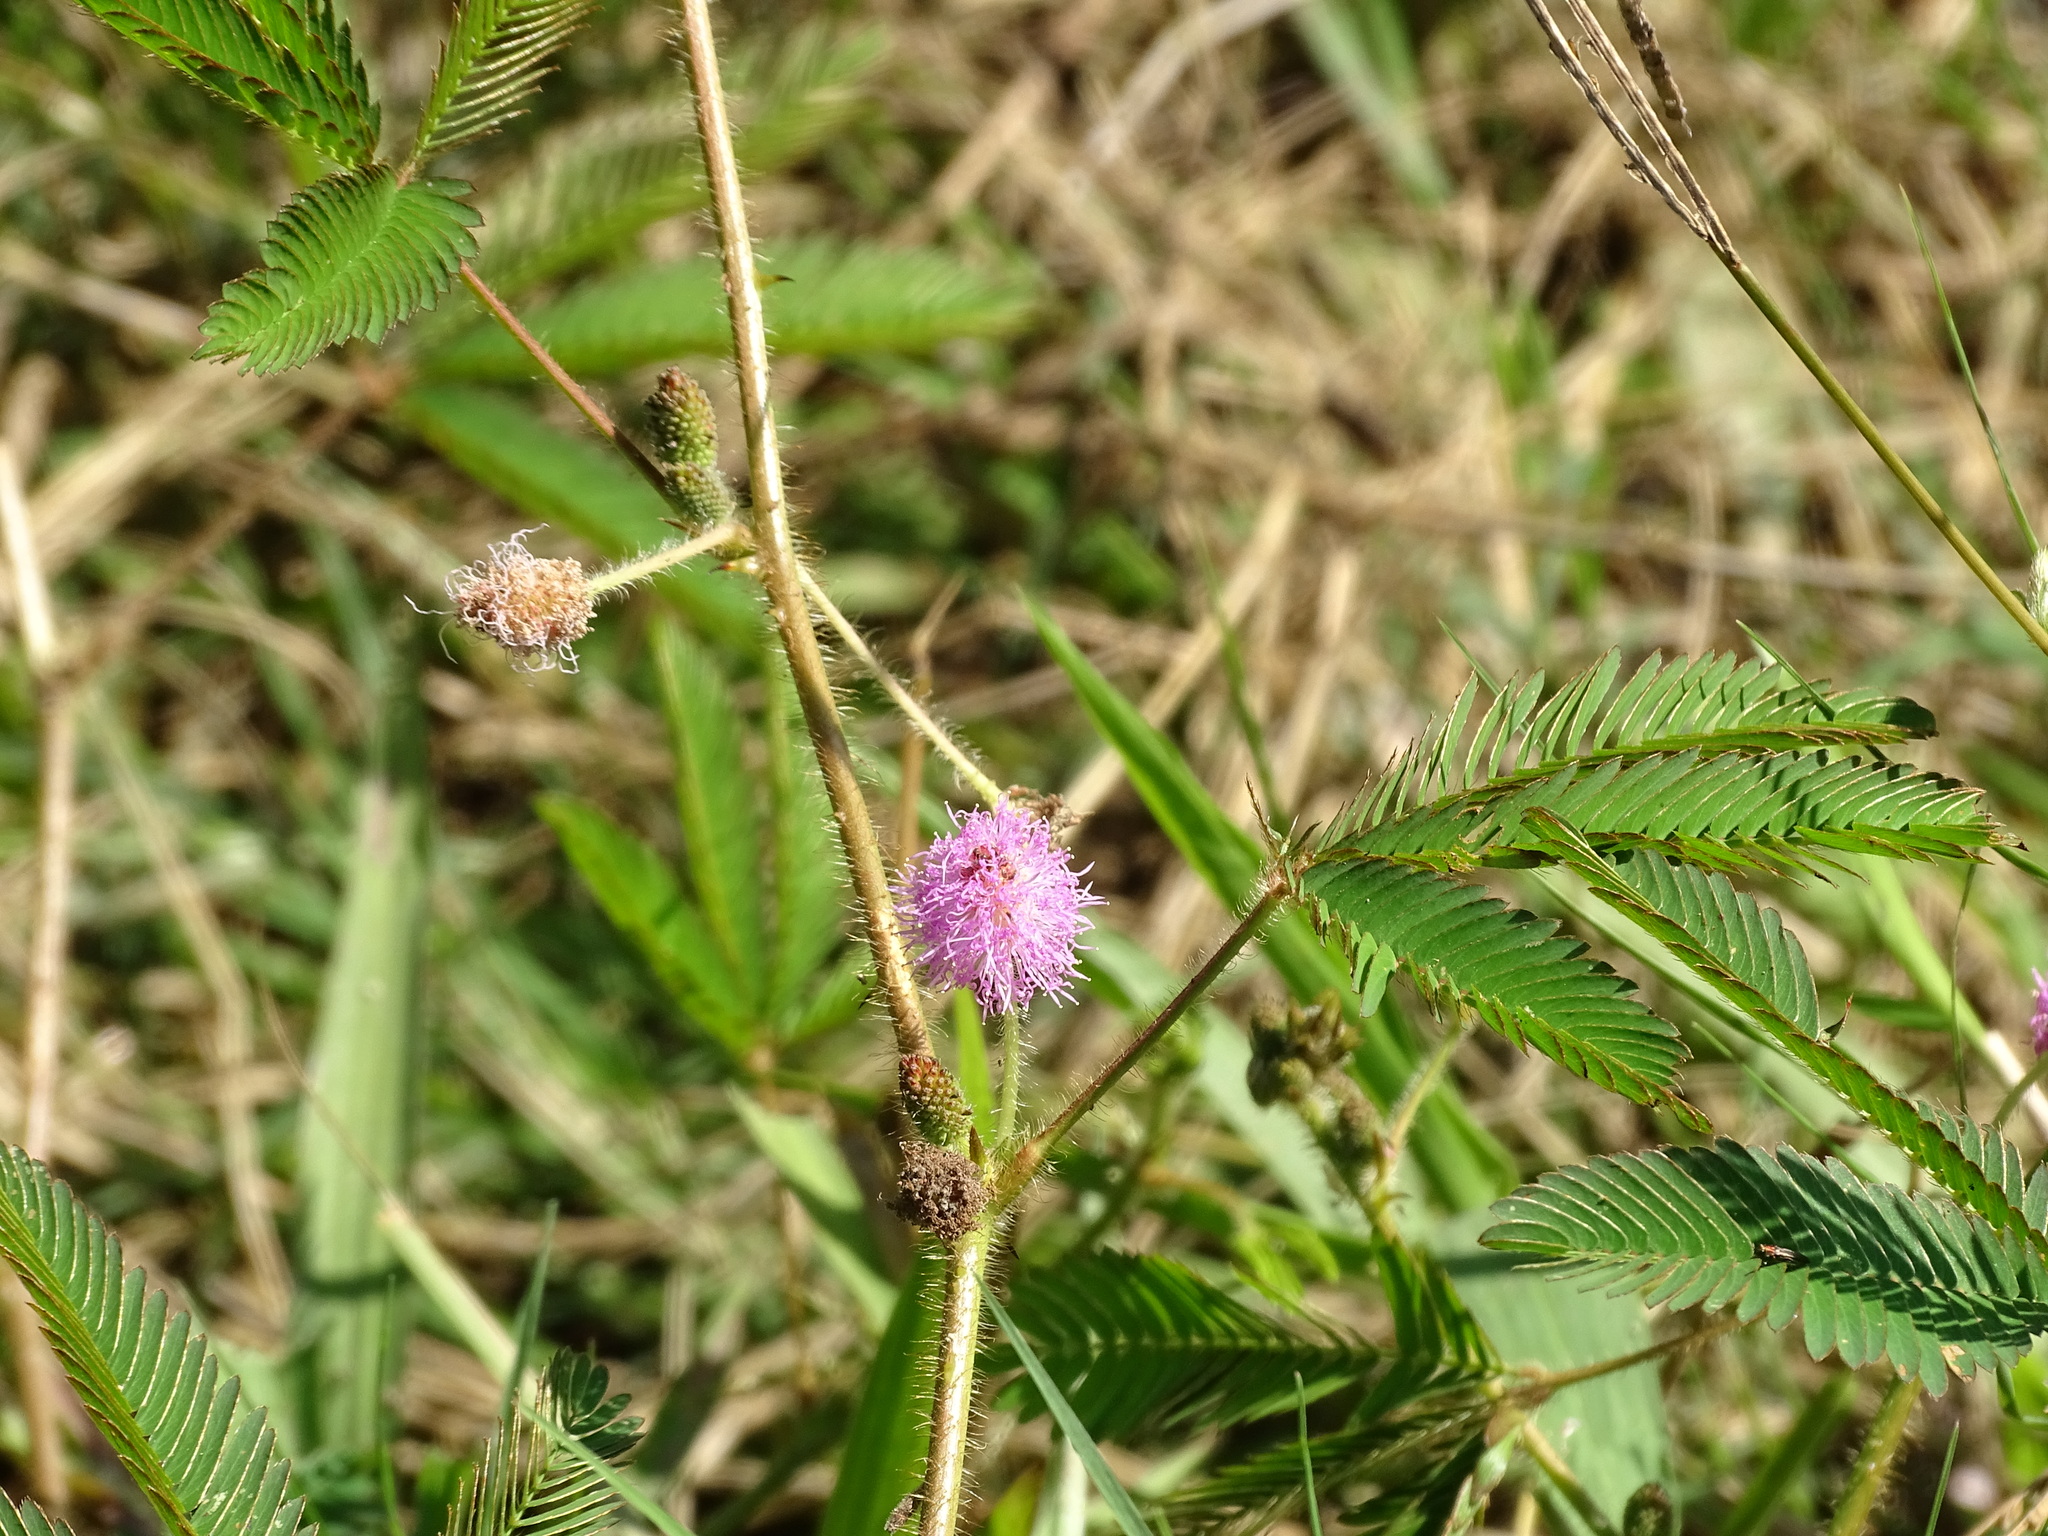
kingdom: Plantae
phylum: Tracheophyta
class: Magnoliopsida
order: Fabales
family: Fabaceae
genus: Mimosa
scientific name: Mimosa pudica
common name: Sensitive plant
